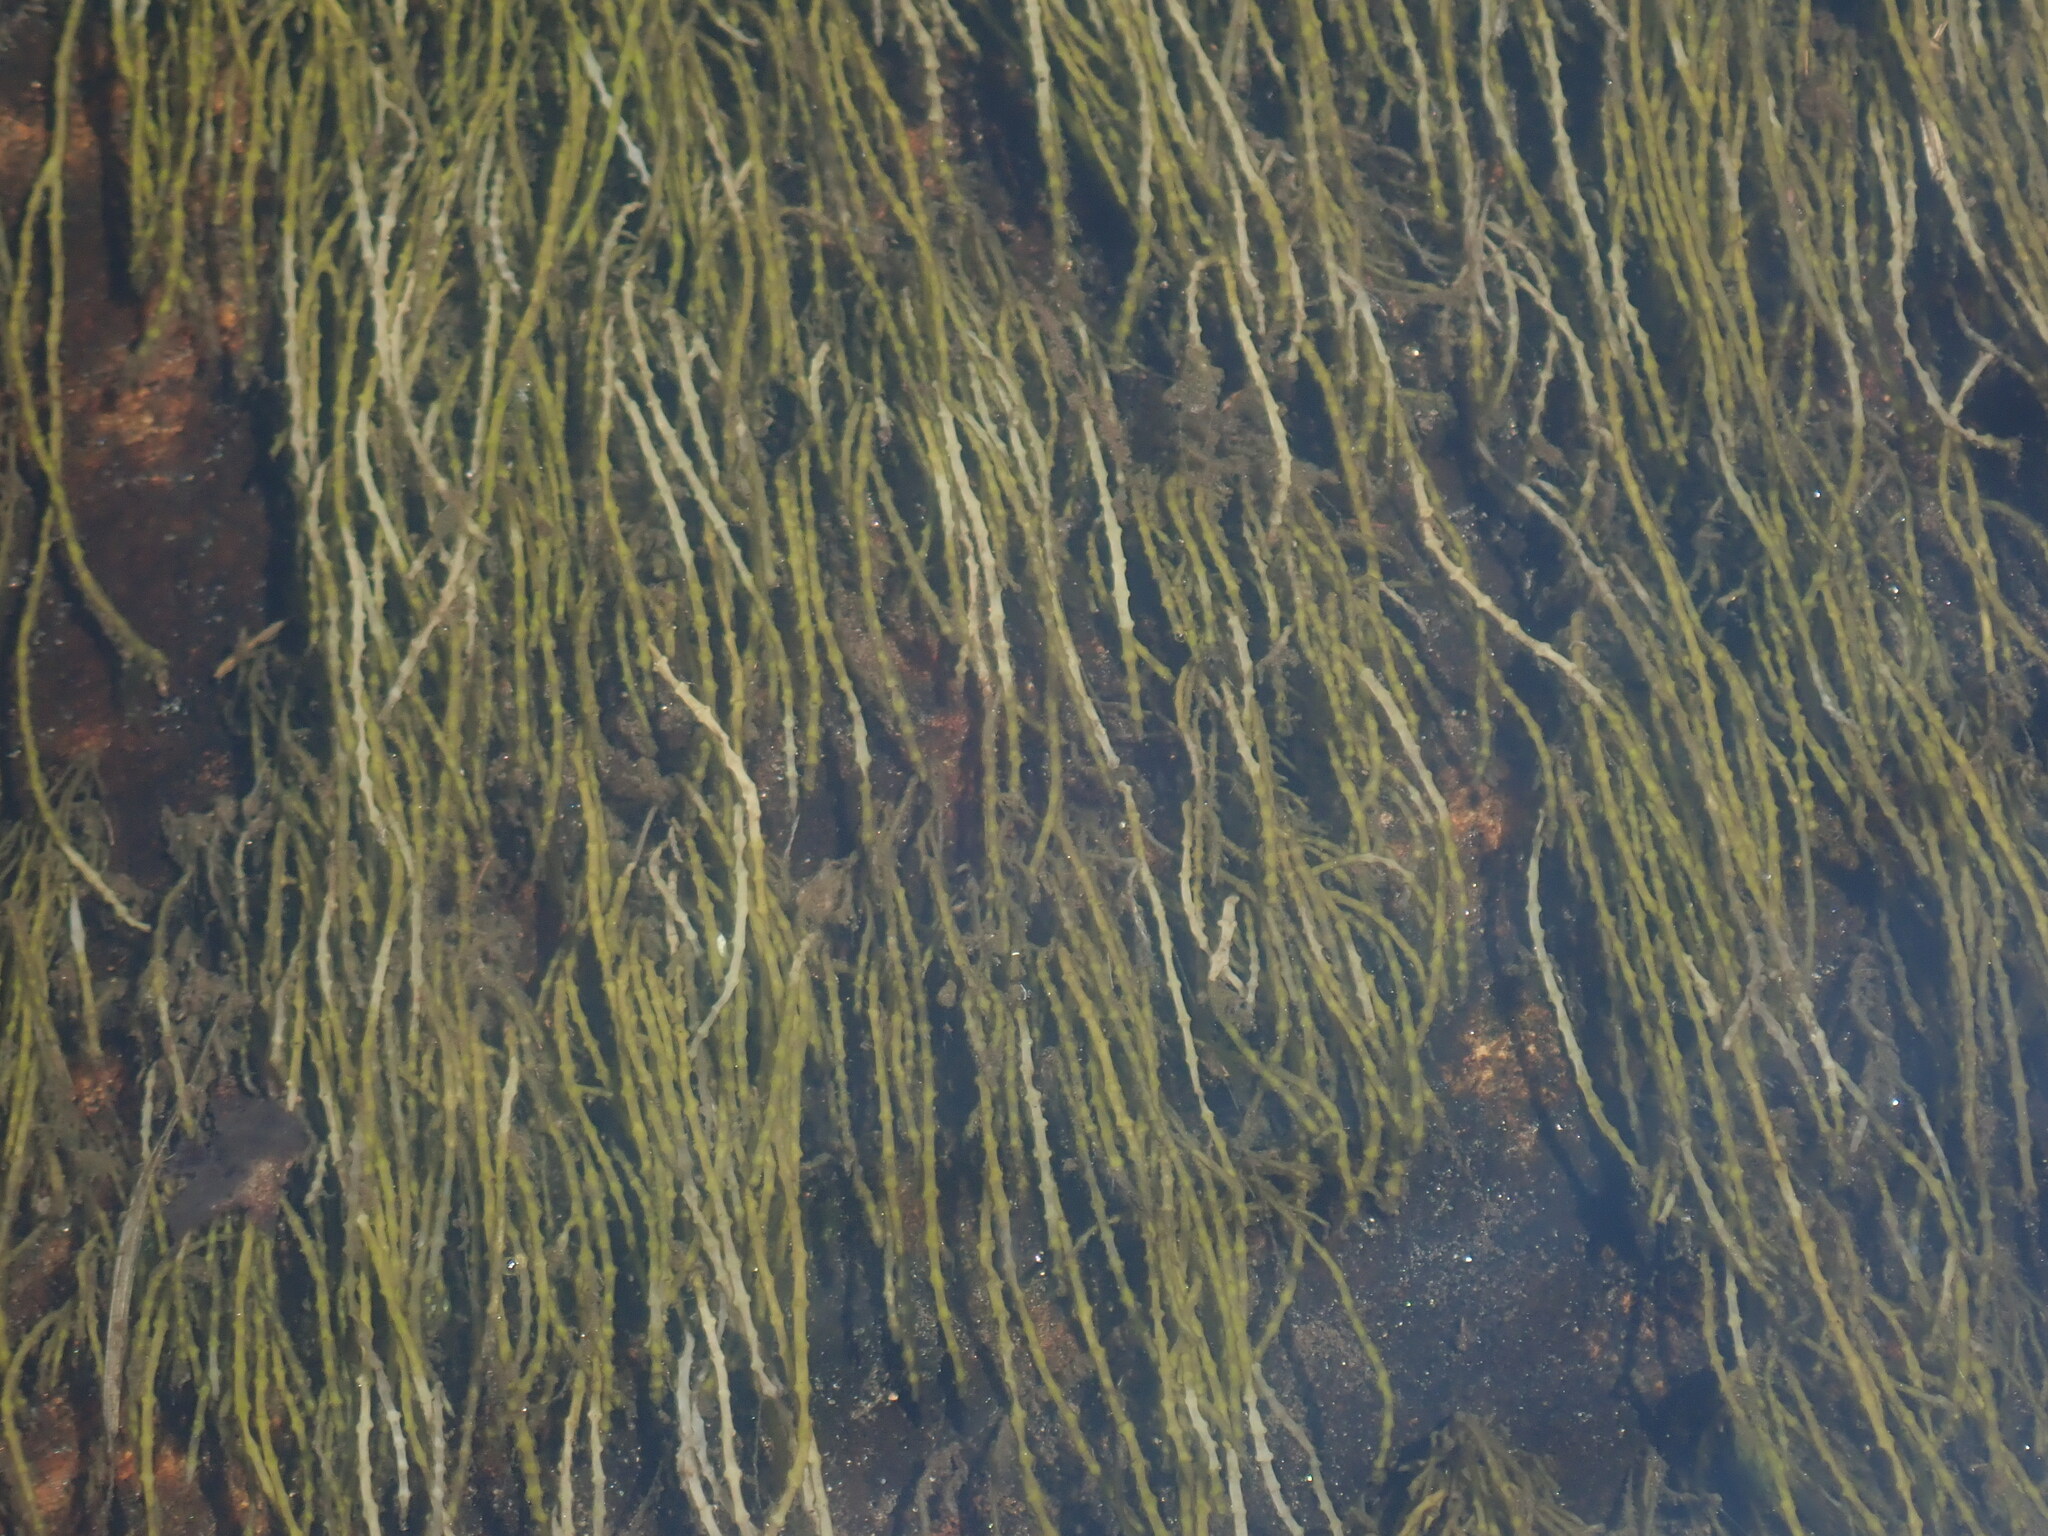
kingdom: Plantae
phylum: Tracheophyta
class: Magnoliopsida
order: Saxifragales
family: Haloragaceae
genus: Myriophyllum
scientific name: Myriophyllum tenellum
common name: Slender water-milfoil
